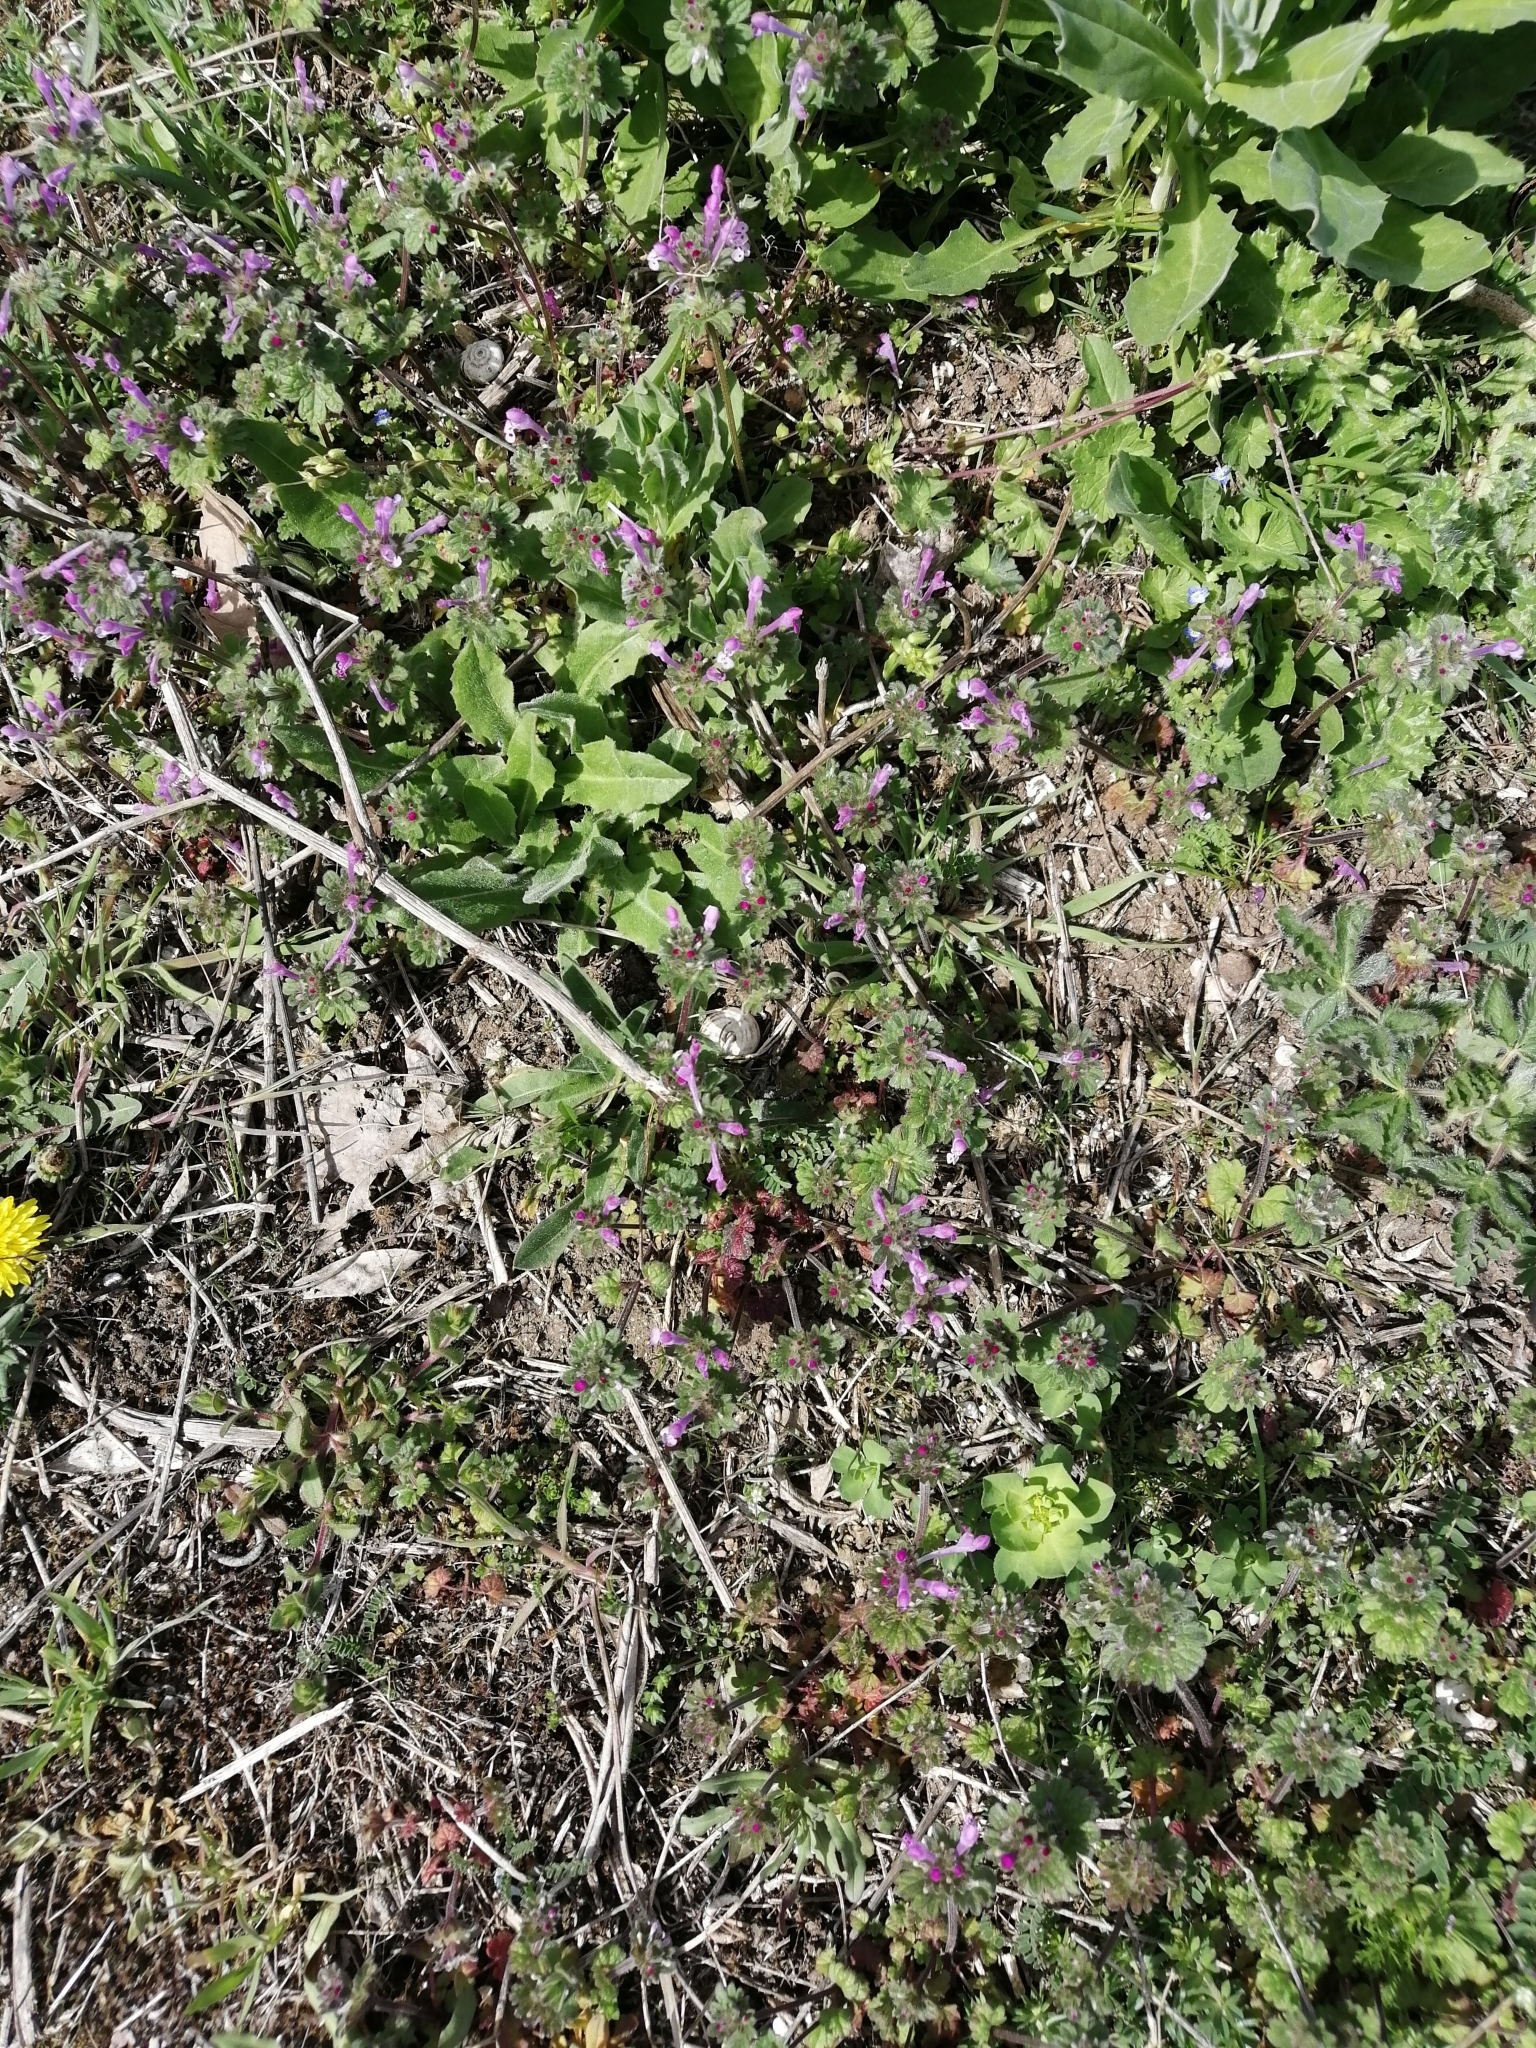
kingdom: Plantae
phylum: Tracheophyta
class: Magnoliopsida
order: Lamiales
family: Lamiaceae
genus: Lamium
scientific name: Lamium amplexicaule
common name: Henbit dead-nettle
